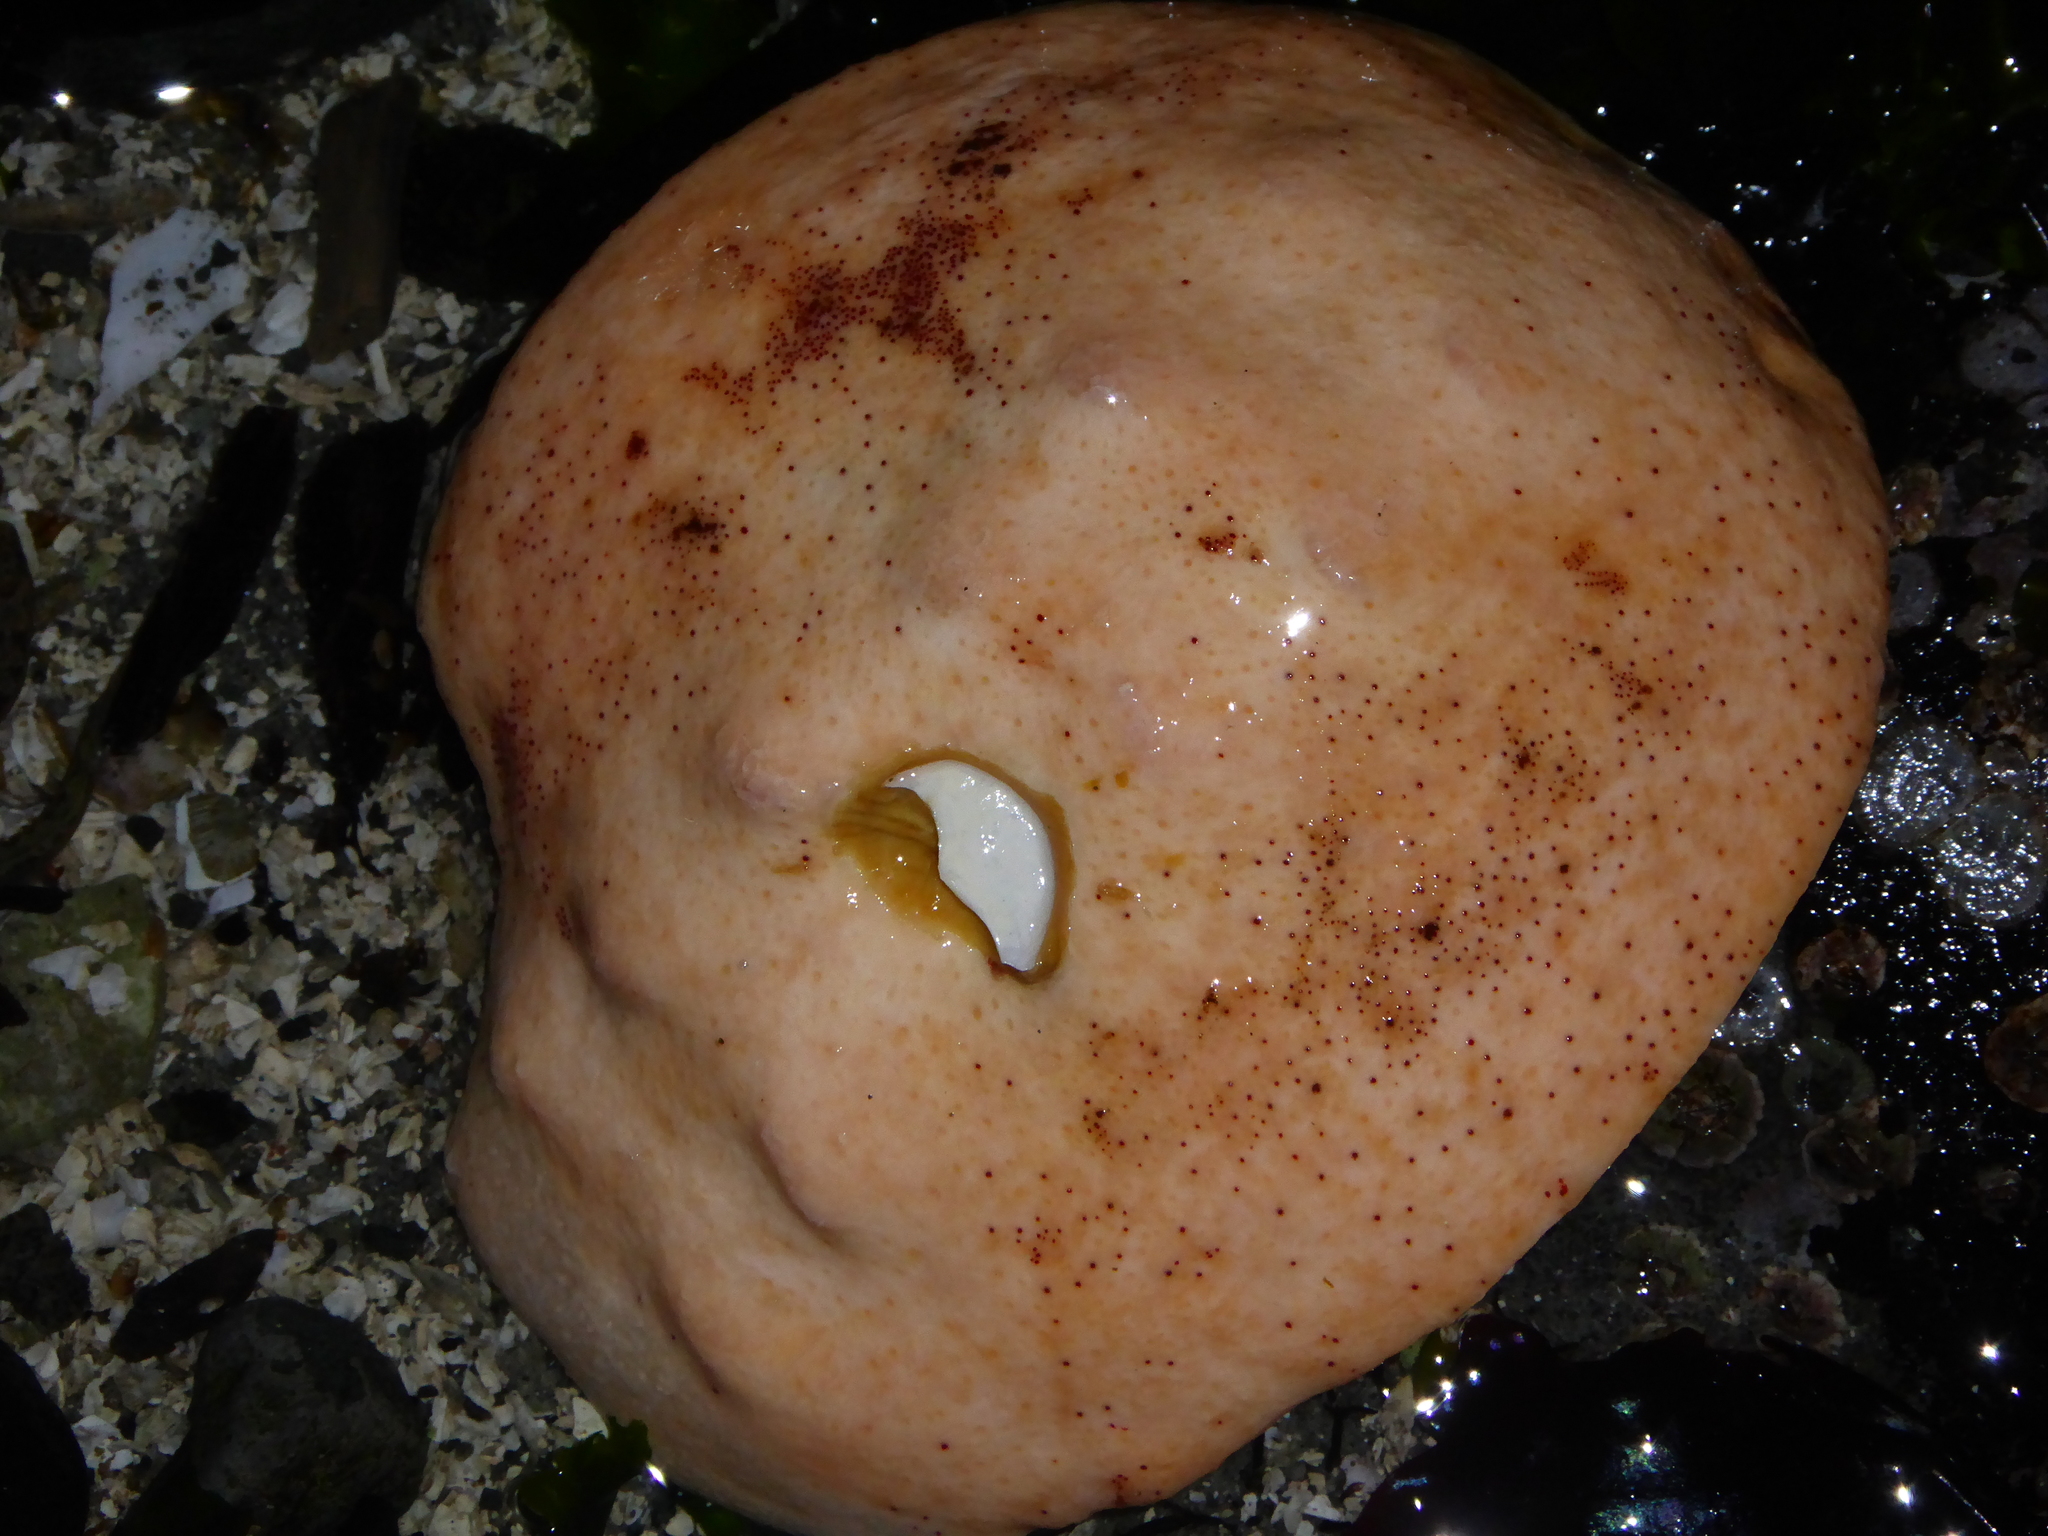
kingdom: Animalia
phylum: Mollusca
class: Polyplacophora
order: Chitonida
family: Acanthochitonidae
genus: Cryptochiton
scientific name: Cryptochiton stelleri
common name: Giant pacific chiton
